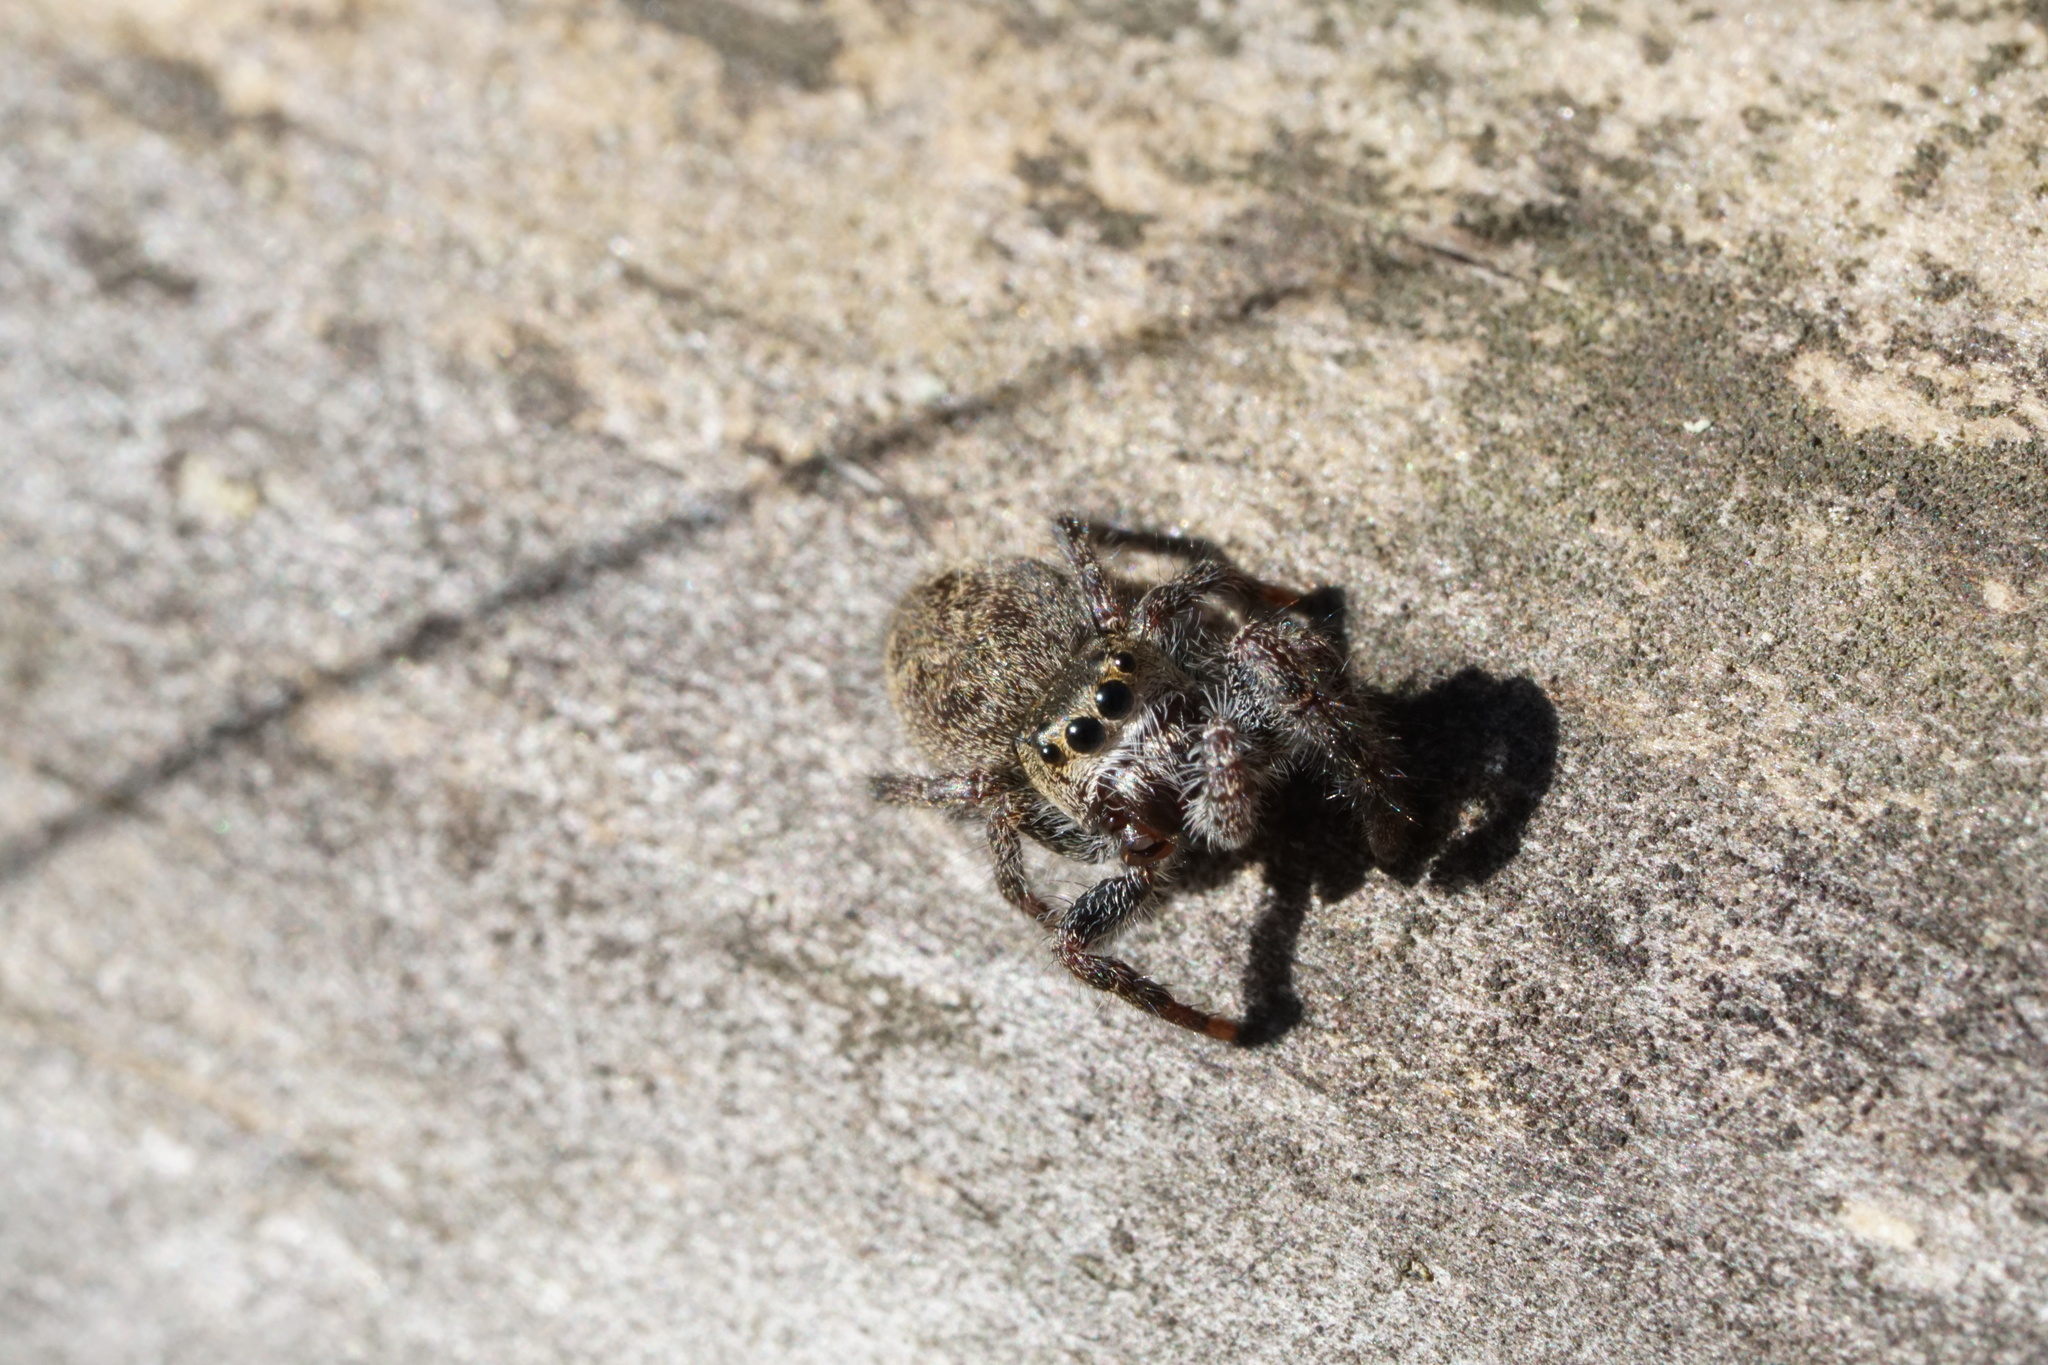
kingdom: Animalia
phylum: Arthropoda
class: Arachnida
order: Araneae
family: Salticidae
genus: Phidippus
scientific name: Phidippus princeps
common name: Grayish jumping spider
